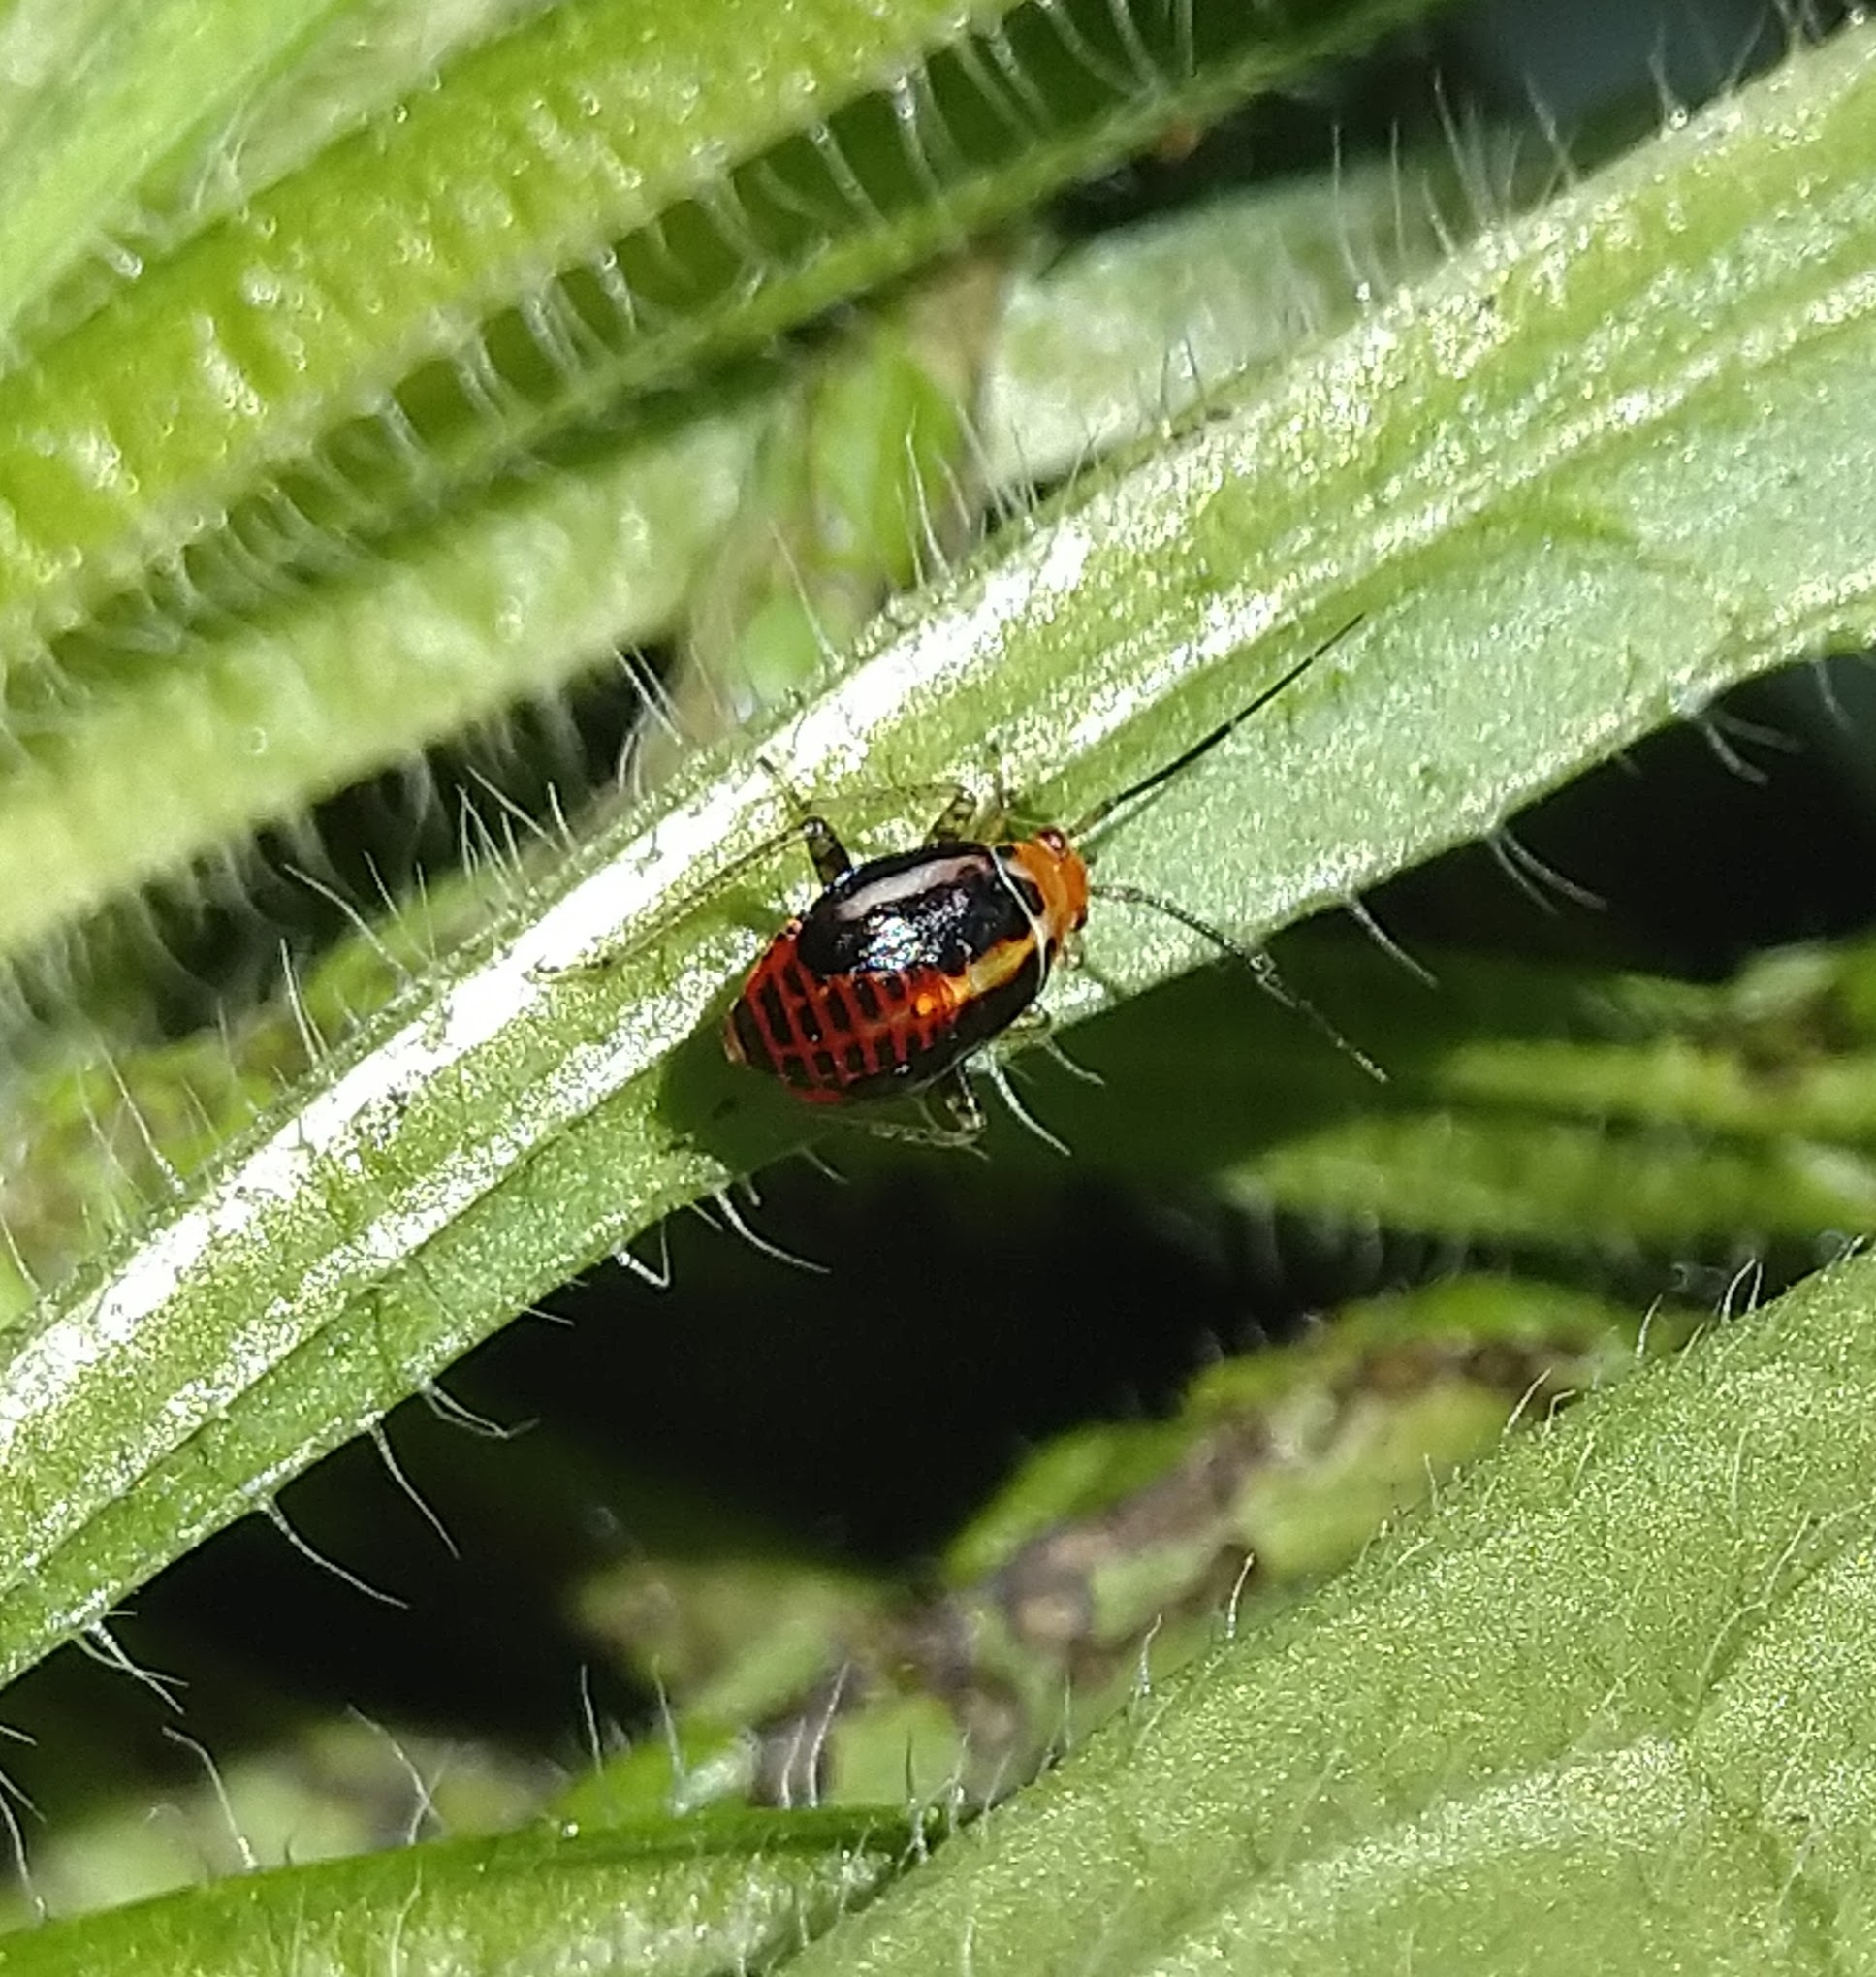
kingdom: Animalia
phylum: Arthropoda
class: Insecta
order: Hemiptera
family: Miridae
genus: Poecilocapsus
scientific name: Poecilocapsus lineatus
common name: Four-lined plant bug
